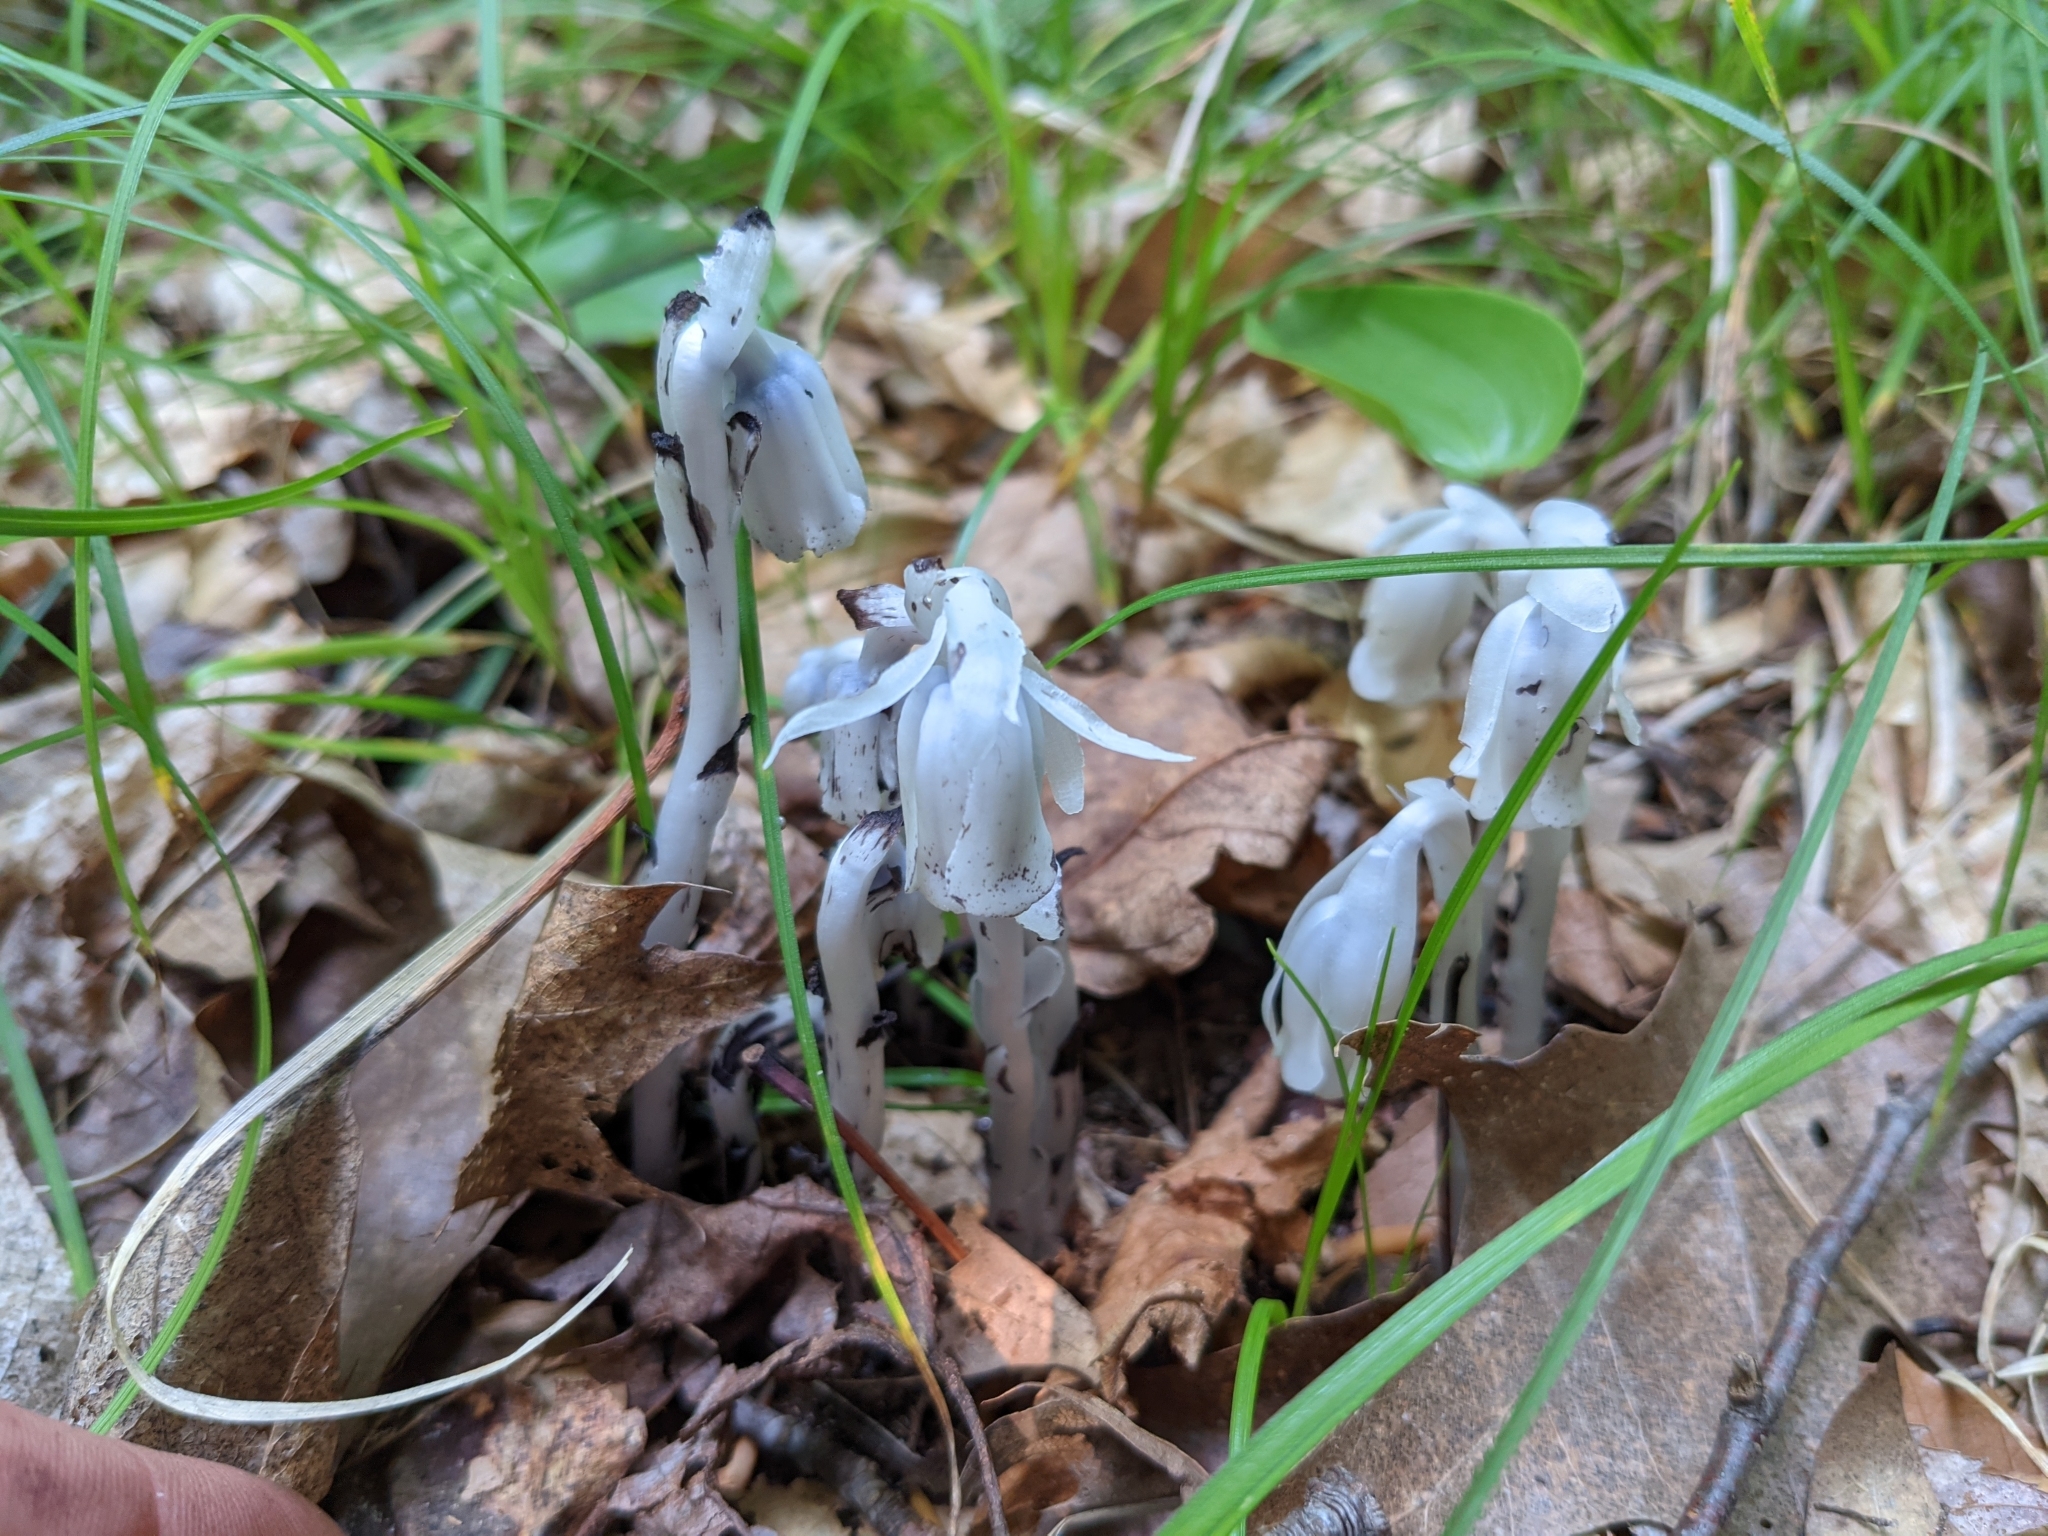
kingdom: Plantae
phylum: Tracheophyta
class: Magnoliopsida
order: Ericales
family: Ericaceae
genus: Monotropa
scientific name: Monotropa uniflora
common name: Convulsion root
